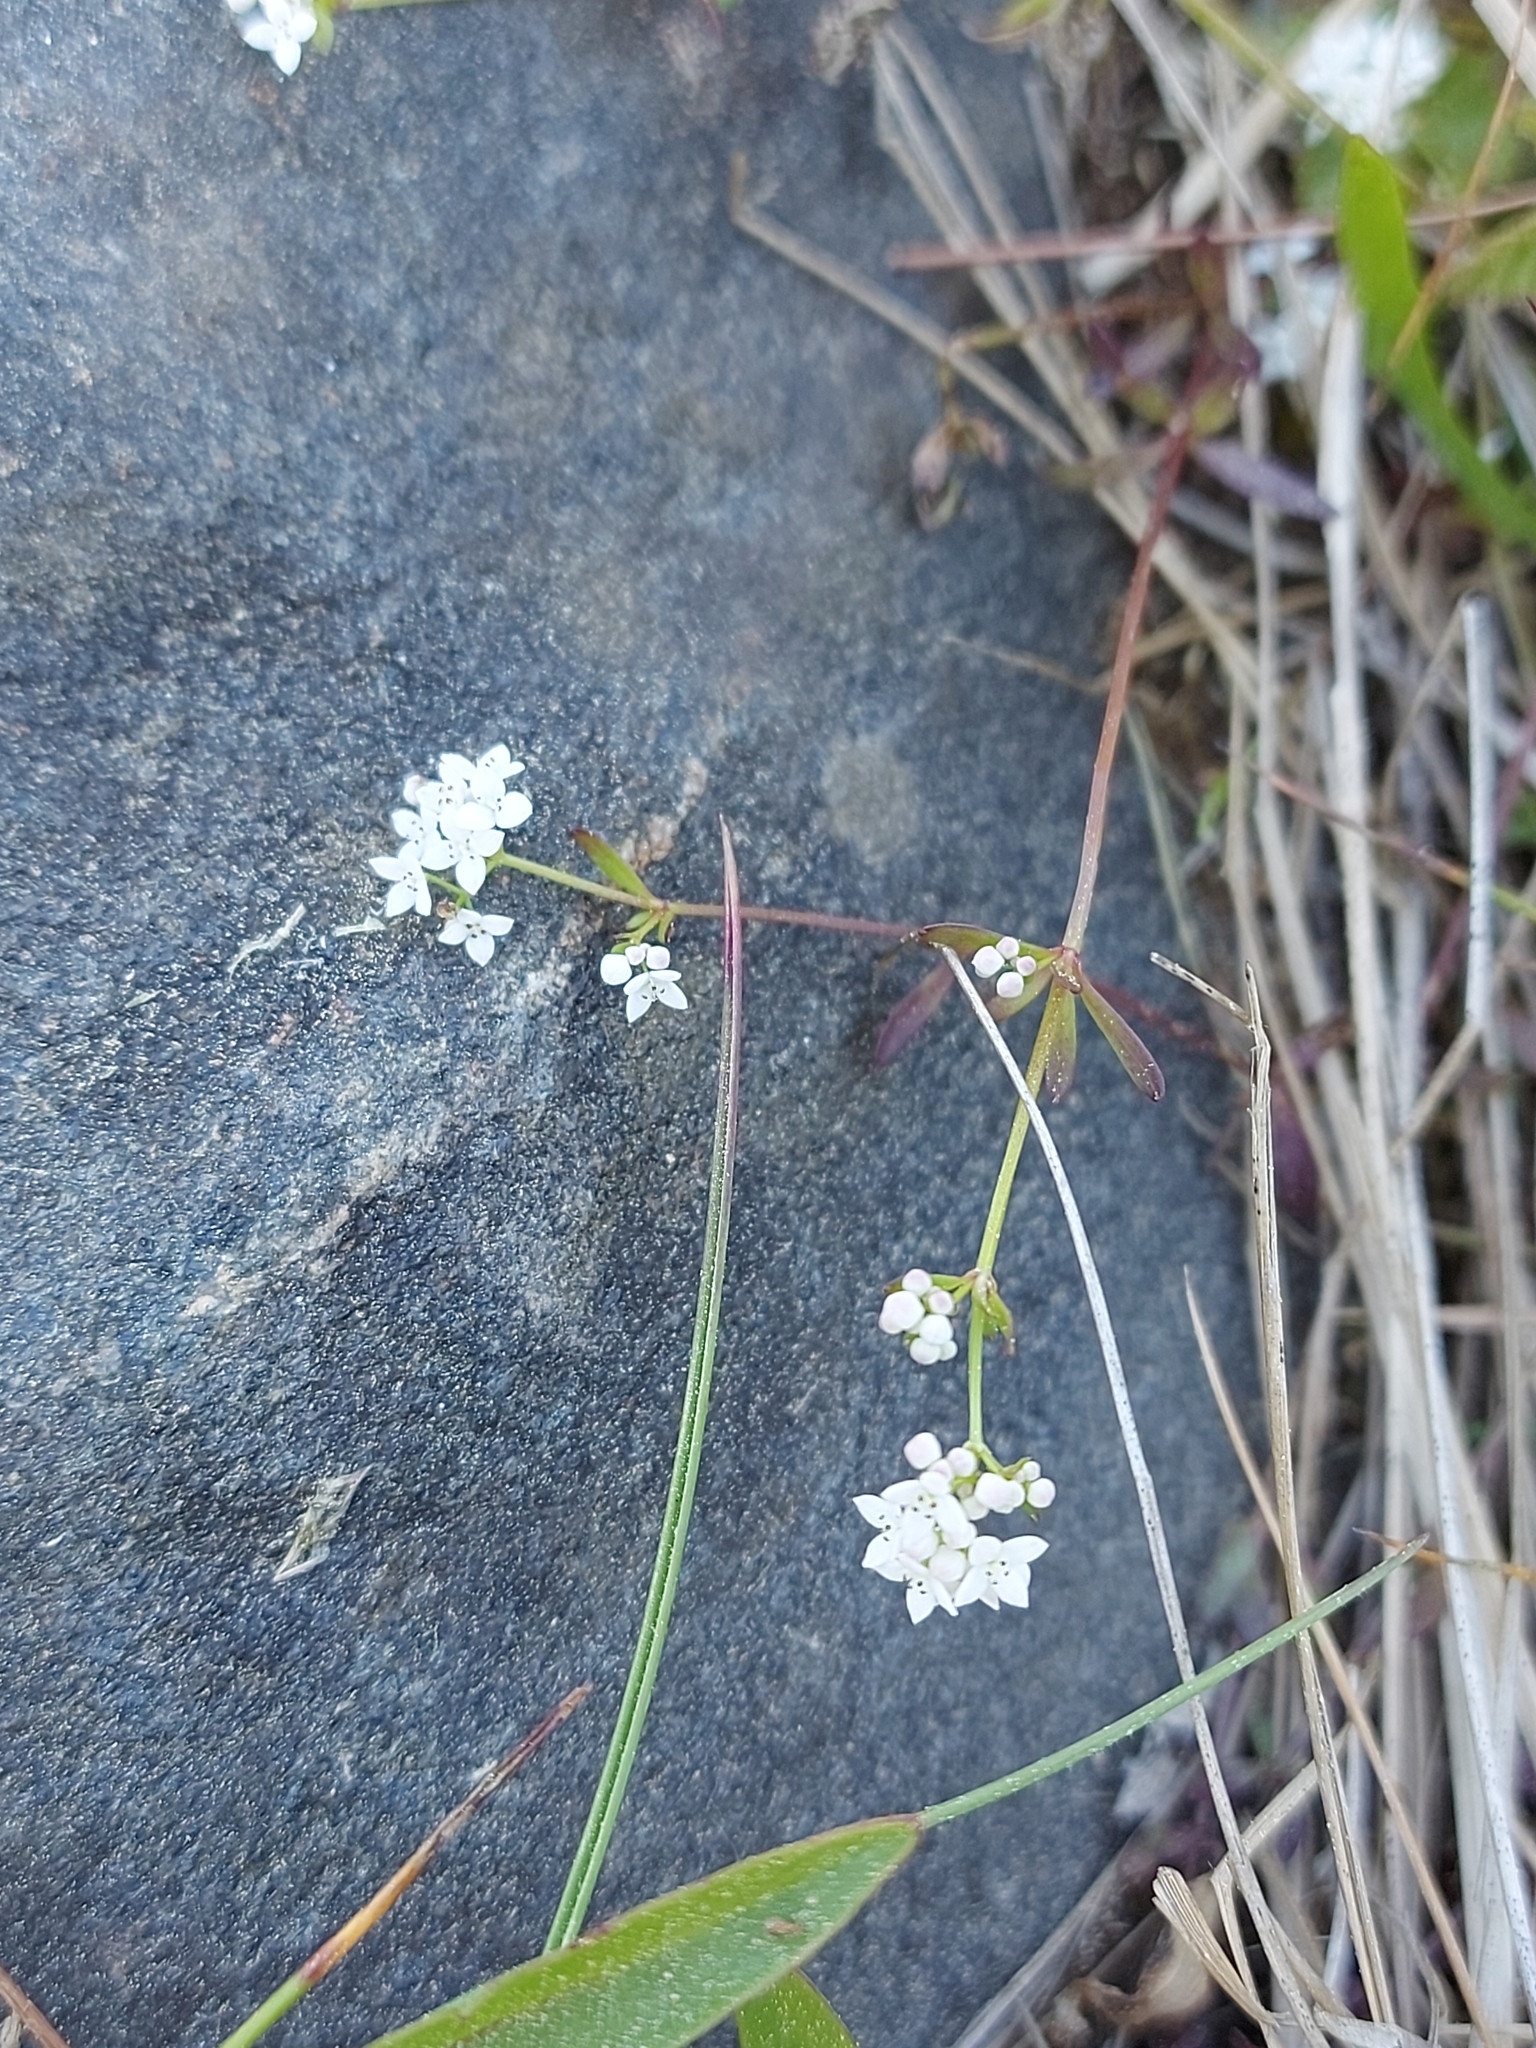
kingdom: Plantae
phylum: Tracheophyta
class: Magnoliopsida
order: Gentianales
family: Rubiaceae
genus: Galium
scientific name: Galium palustre
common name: Common marsh-bedstraw
